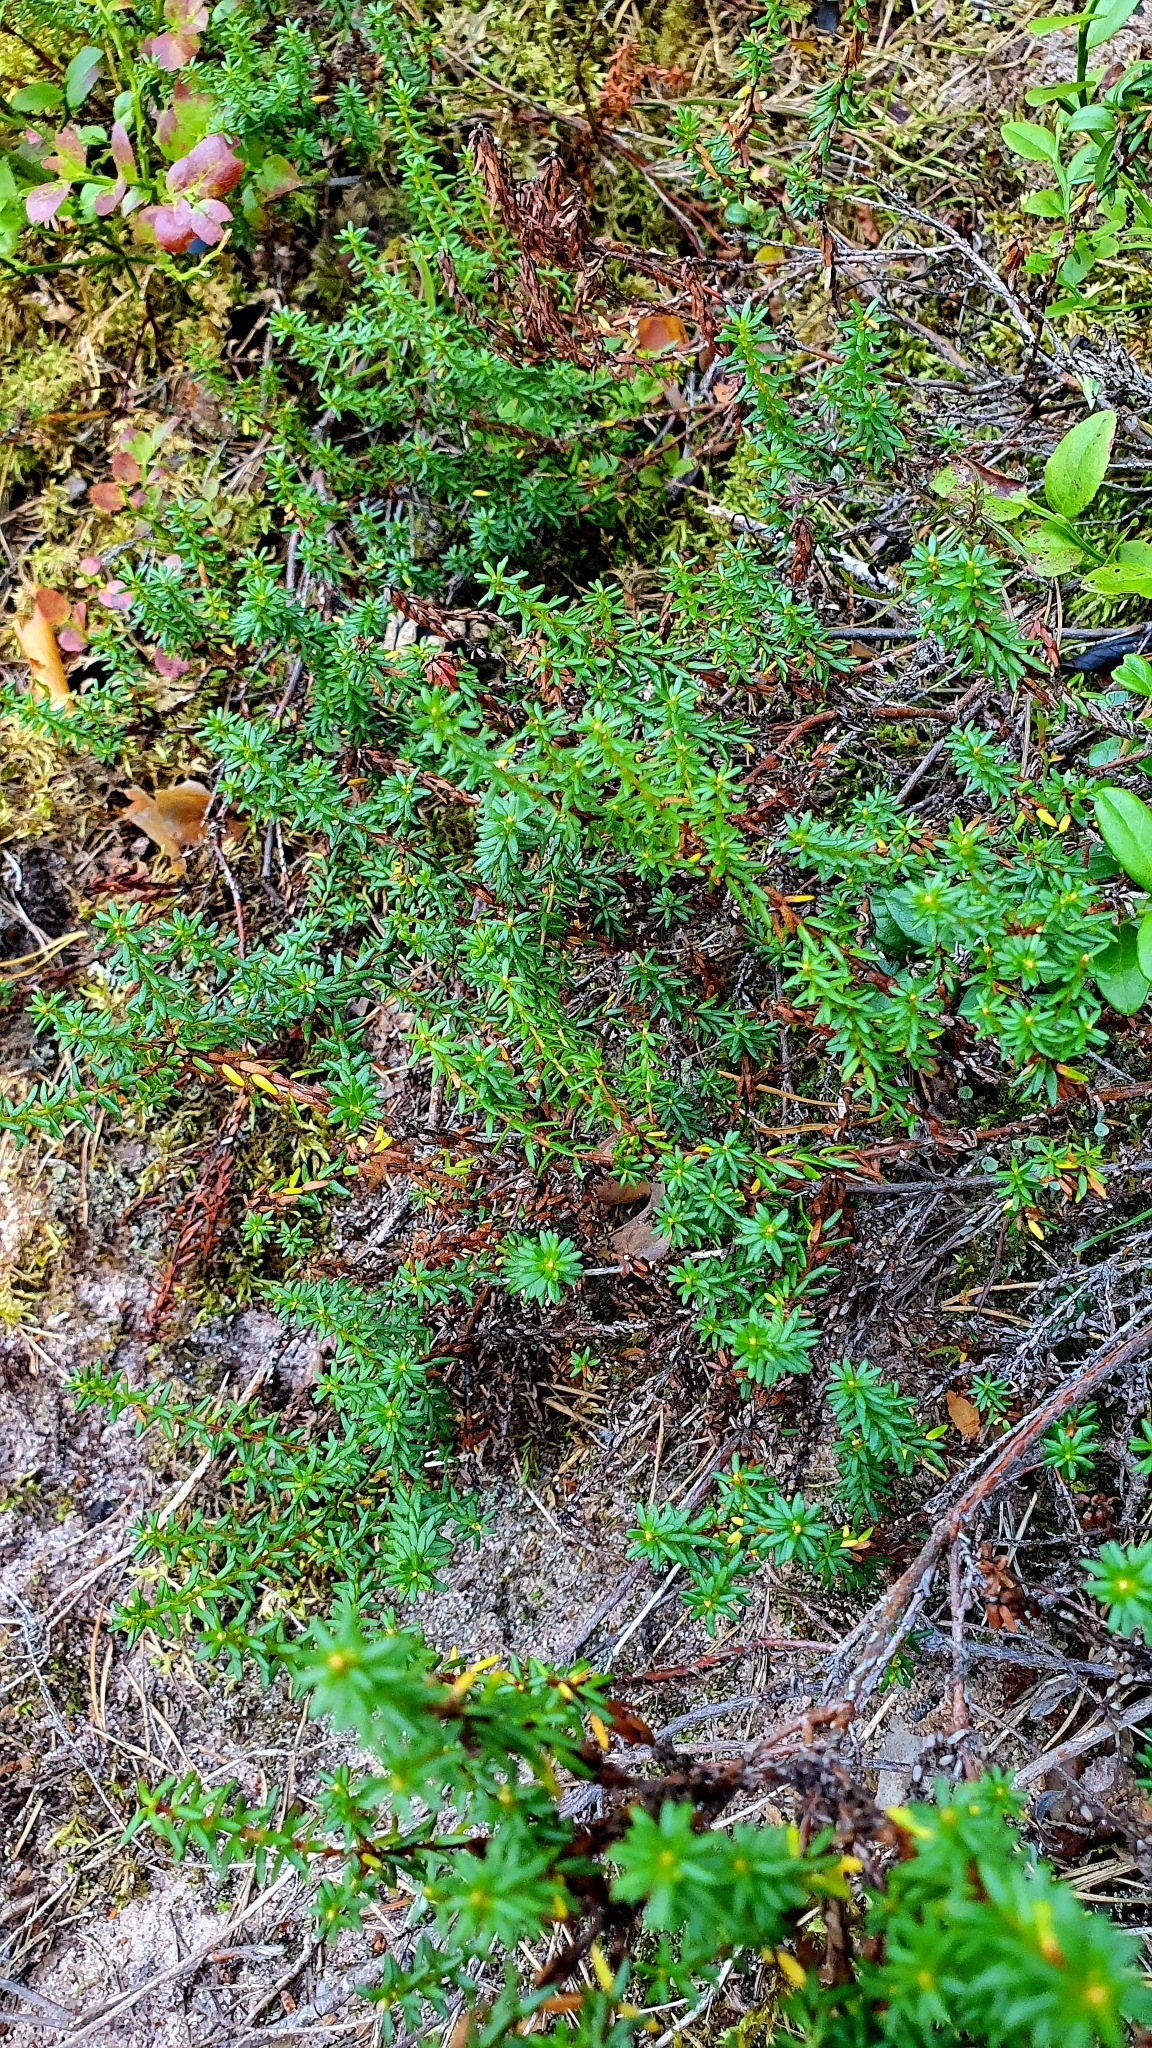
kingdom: Plantae
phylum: Tracheophyta
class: Magnoliopsida
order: Ericales
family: Ericaceae
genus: Empetrum
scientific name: Empetrum nigrum
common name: Black crowberry
